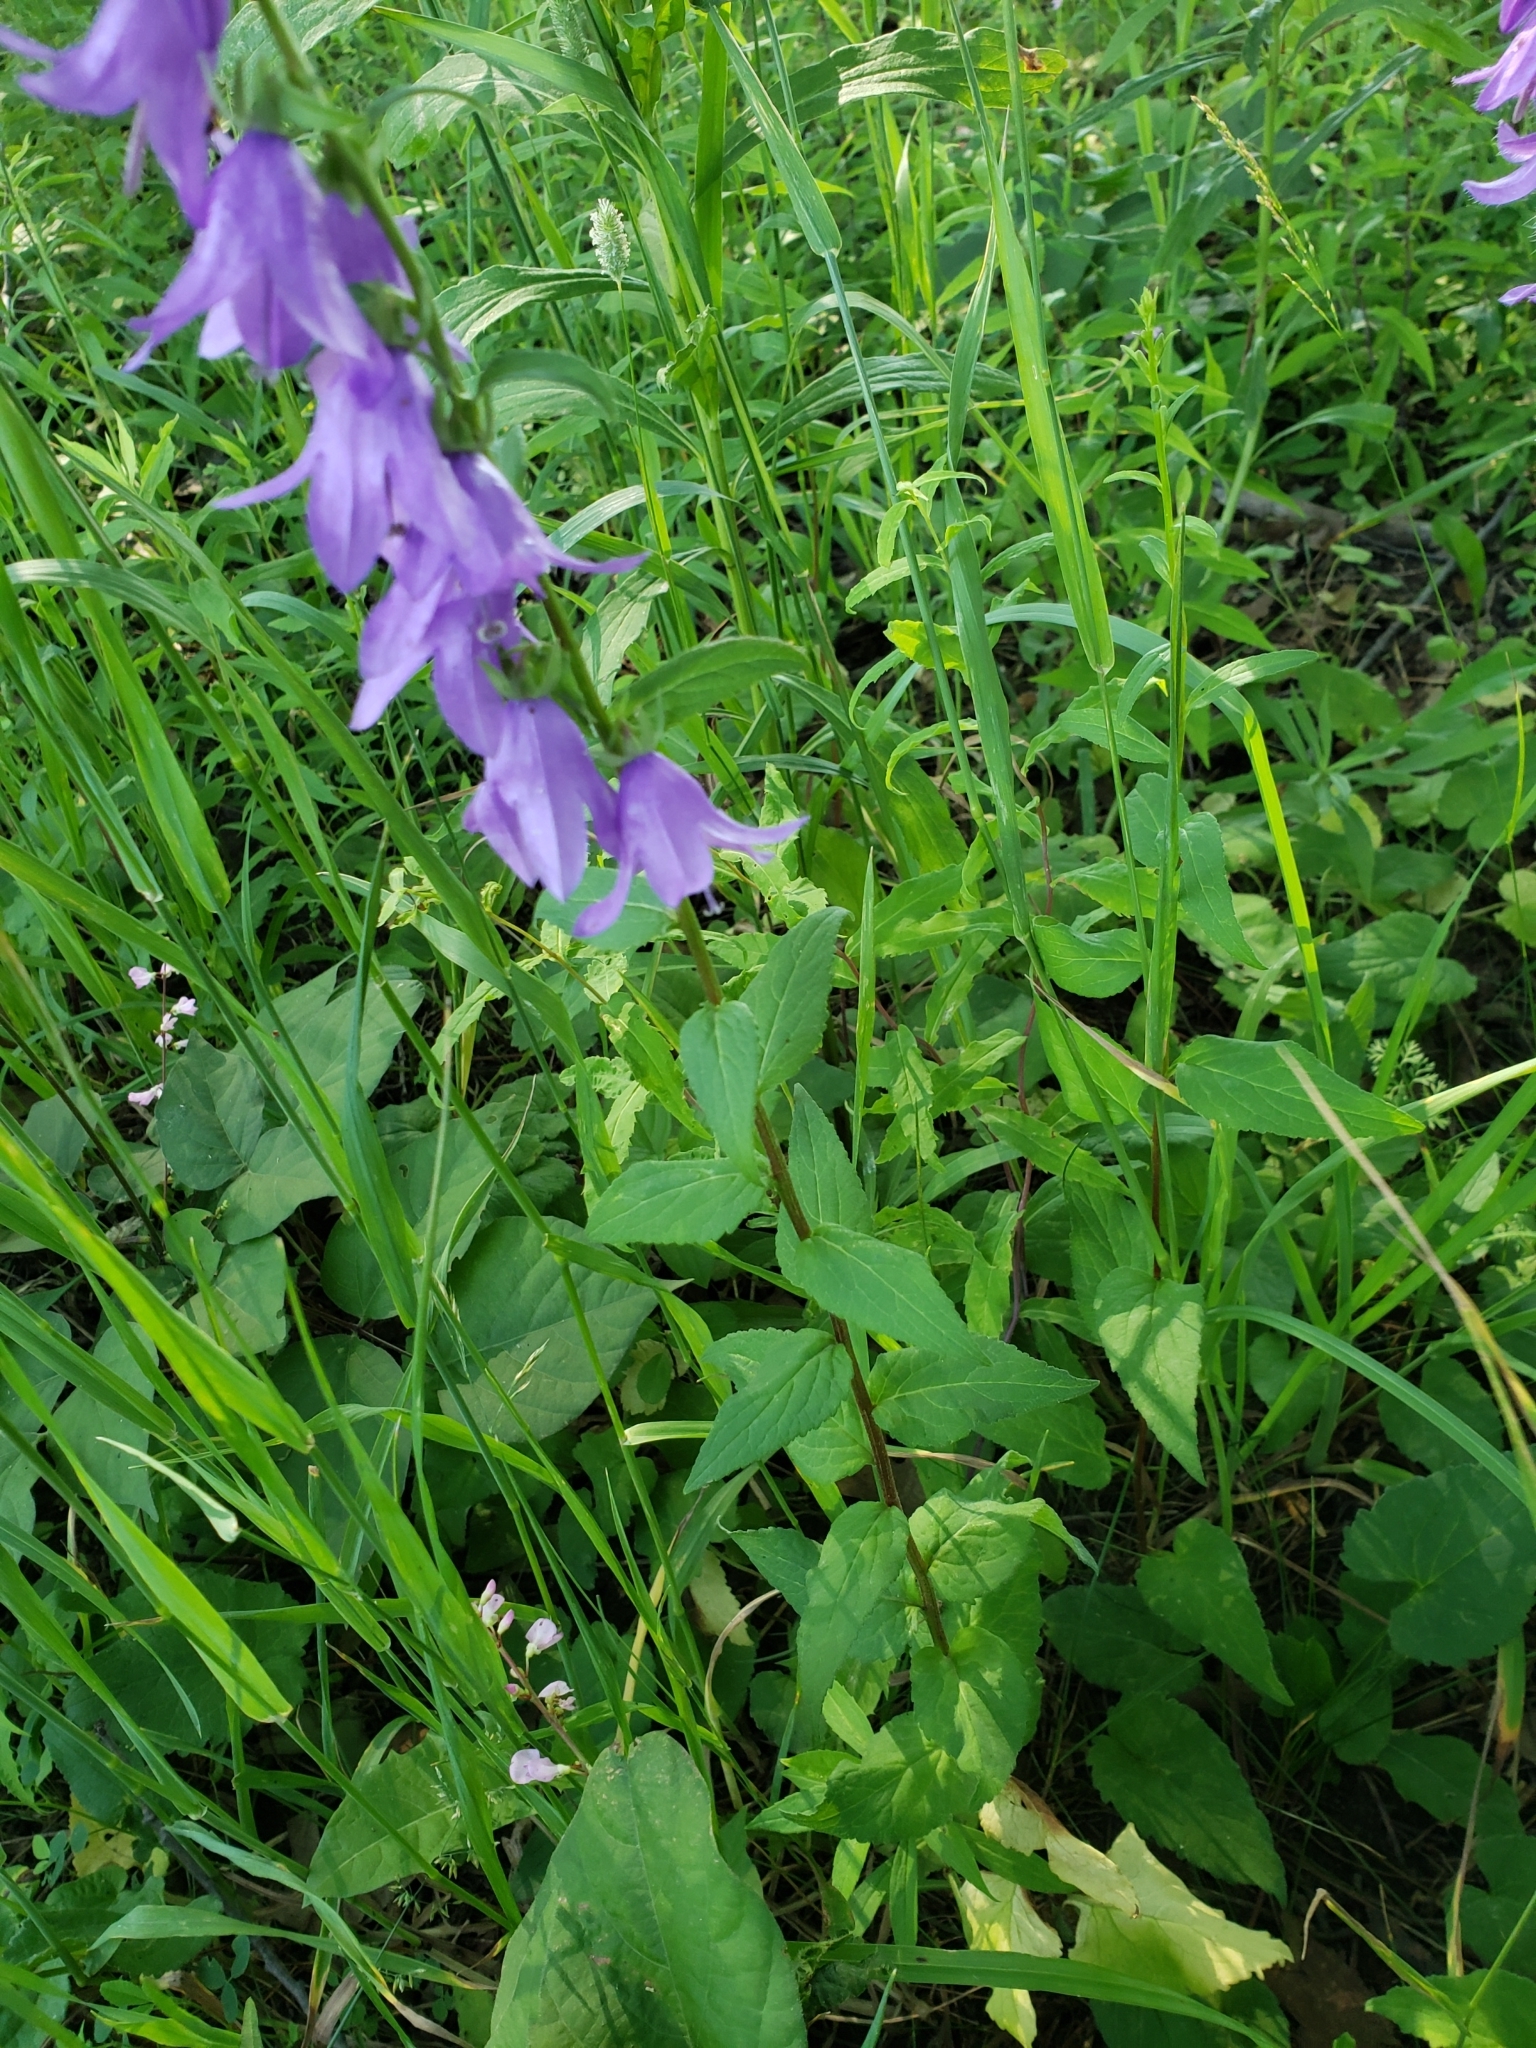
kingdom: Plantae
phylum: Tracheophyta
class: Magnoliopsida
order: Asterales
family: Campanulaceae
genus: Campanula
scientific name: Campanula rapunculoides
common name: Creeping bellflower
